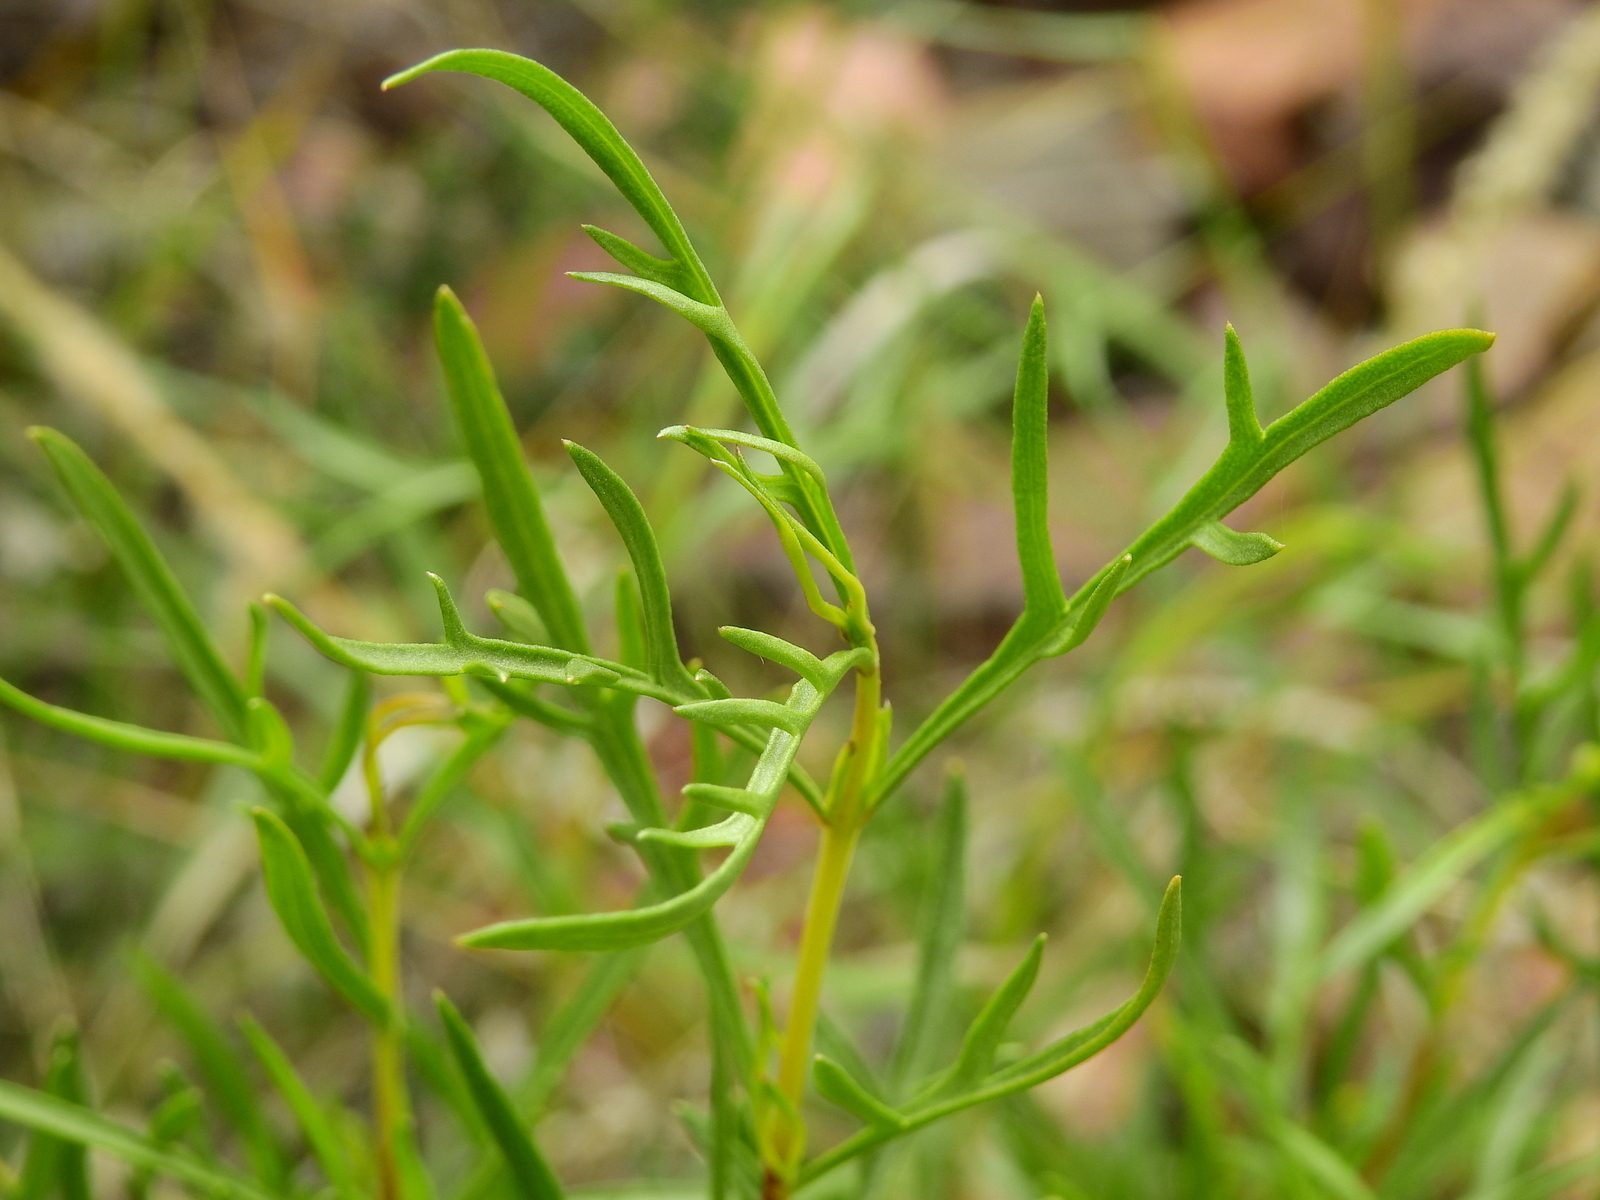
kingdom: Plantae
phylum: Tracheophyta
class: Magnoliopsida
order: Asterales
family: Asteraceae
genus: Acanthostyles
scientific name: Acanthostyles buniifolius
